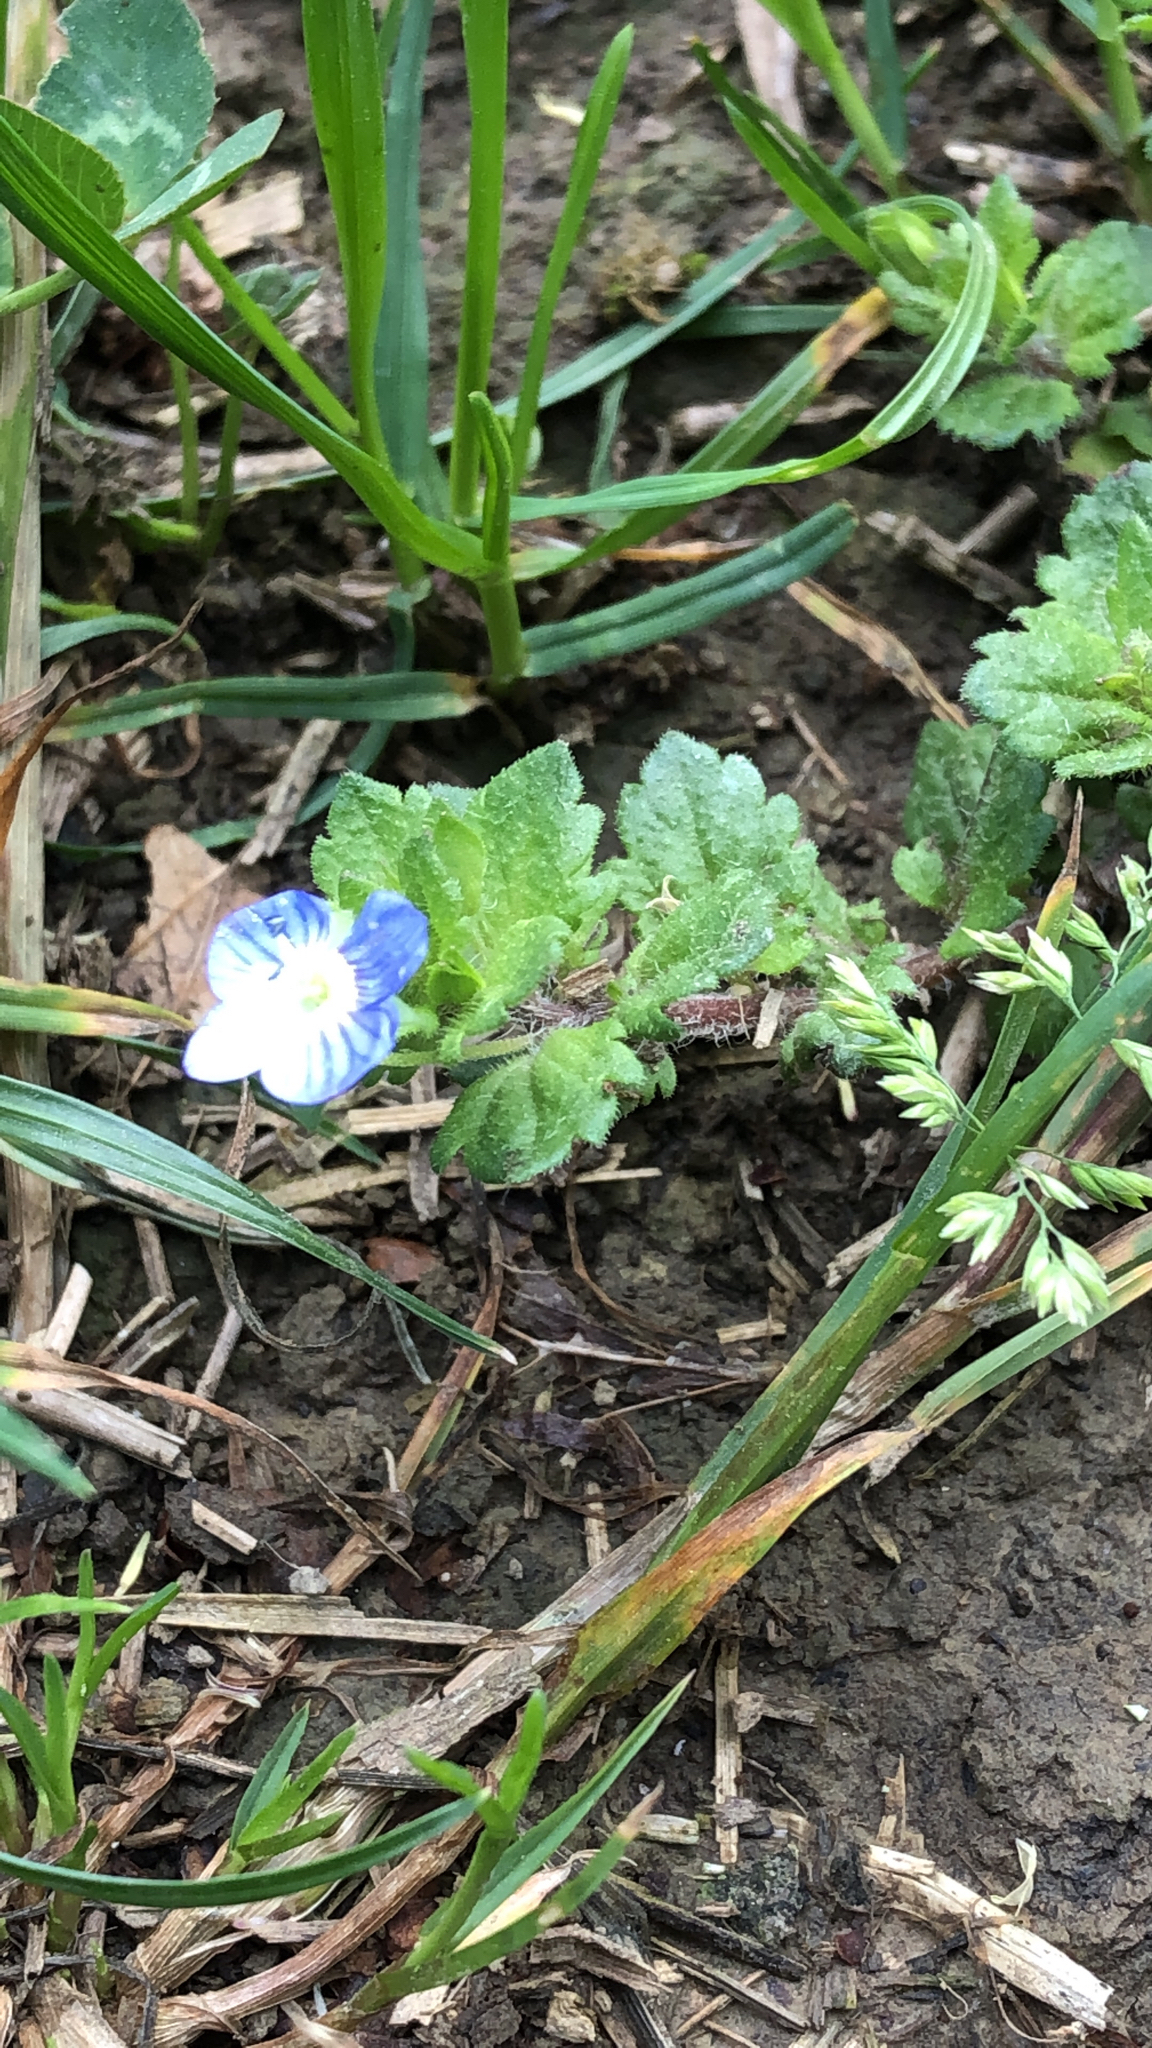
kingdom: Plantae
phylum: Tracheophyta
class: Magnoliopsida
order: Lamiales
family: Plantaginaceae
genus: Veronica
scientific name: Veronica persica
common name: Common field-speedwell
